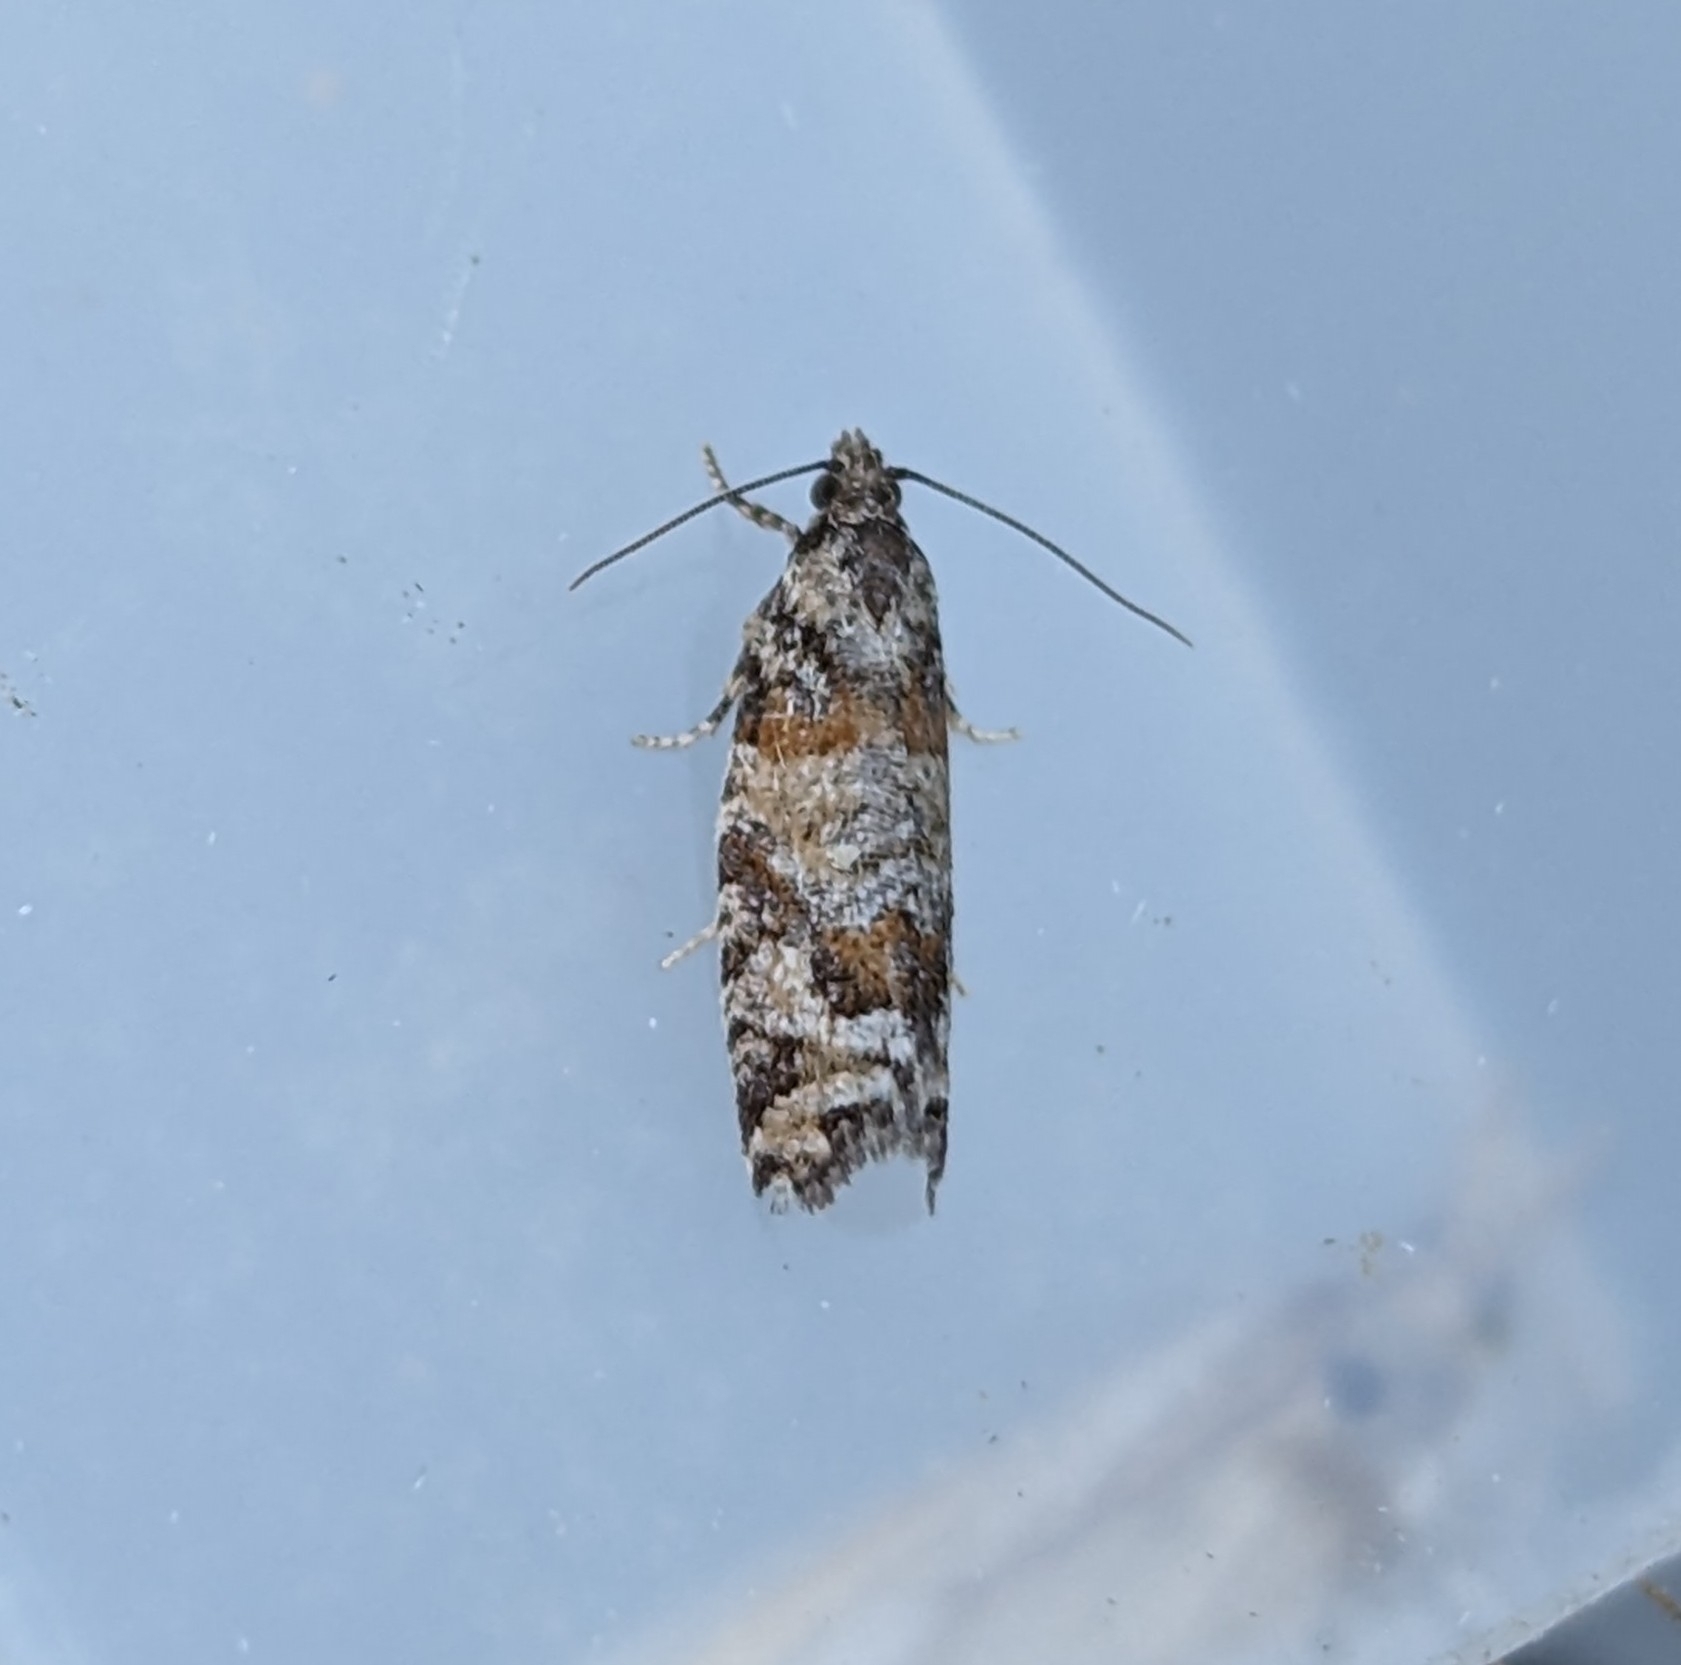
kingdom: Animalia
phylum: Arthropoda
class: Insecta
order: Lepidoptera
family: Tortricidae
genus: Epinotia
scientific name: Epinotia radicana
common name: Red-striped needleworm moth
